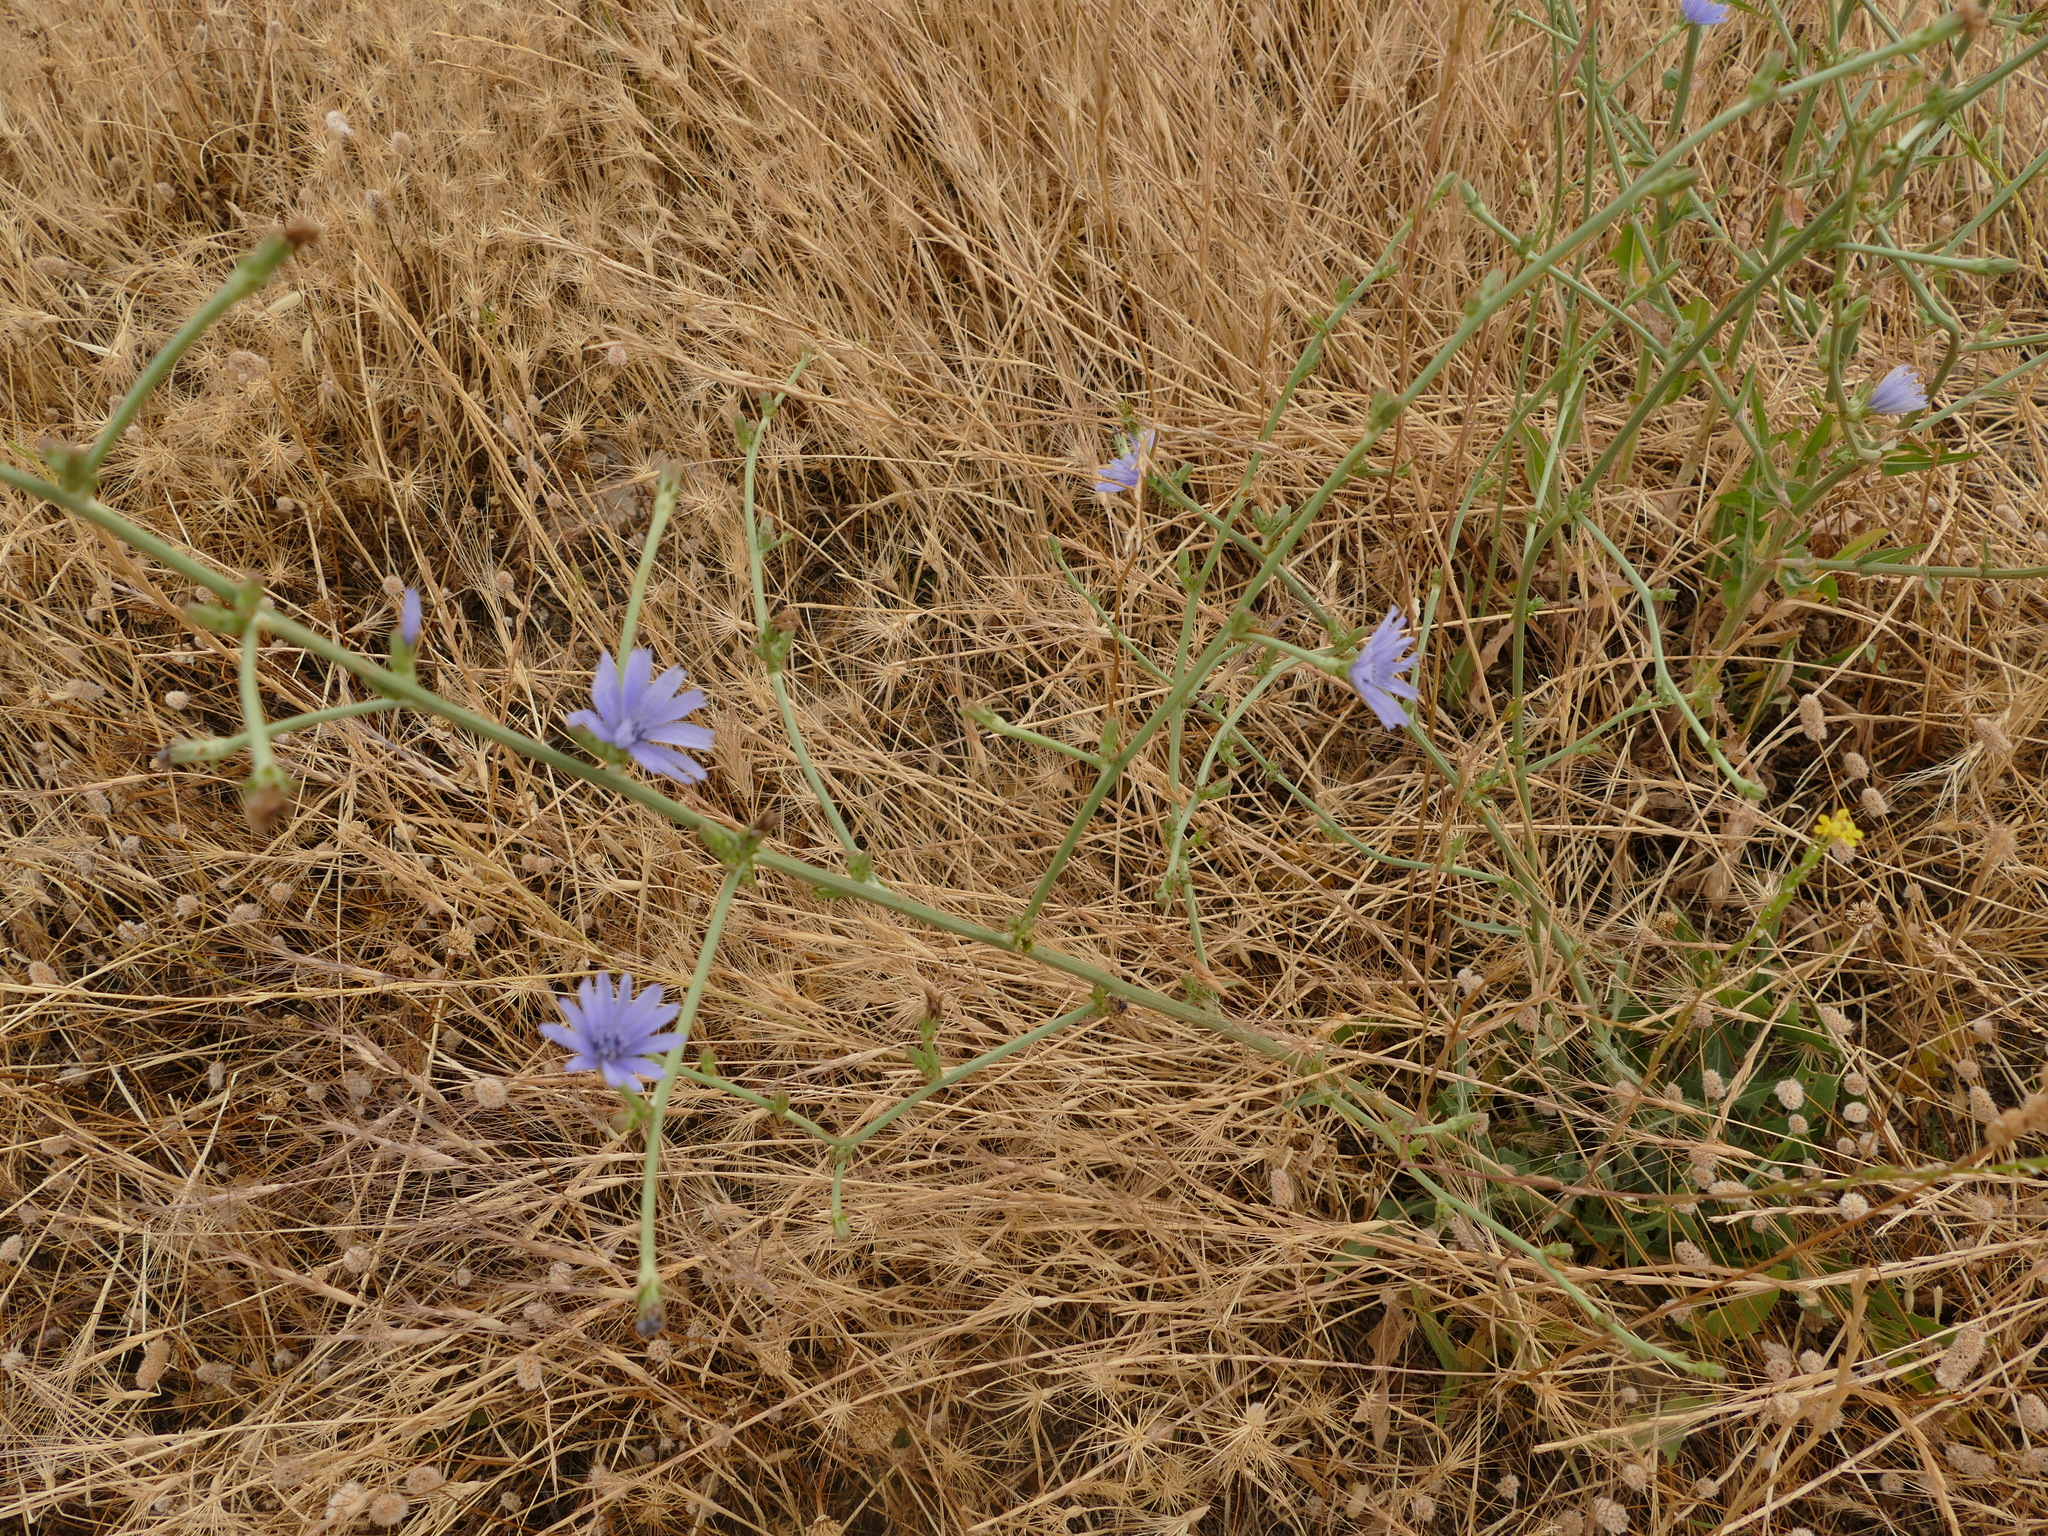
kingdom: Plantae
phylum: Tracheophyta
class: Magnoliopsida
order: Asterales
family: Asteraceae
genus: Cichorium
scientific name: Cichorium intybus
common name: Chicory
